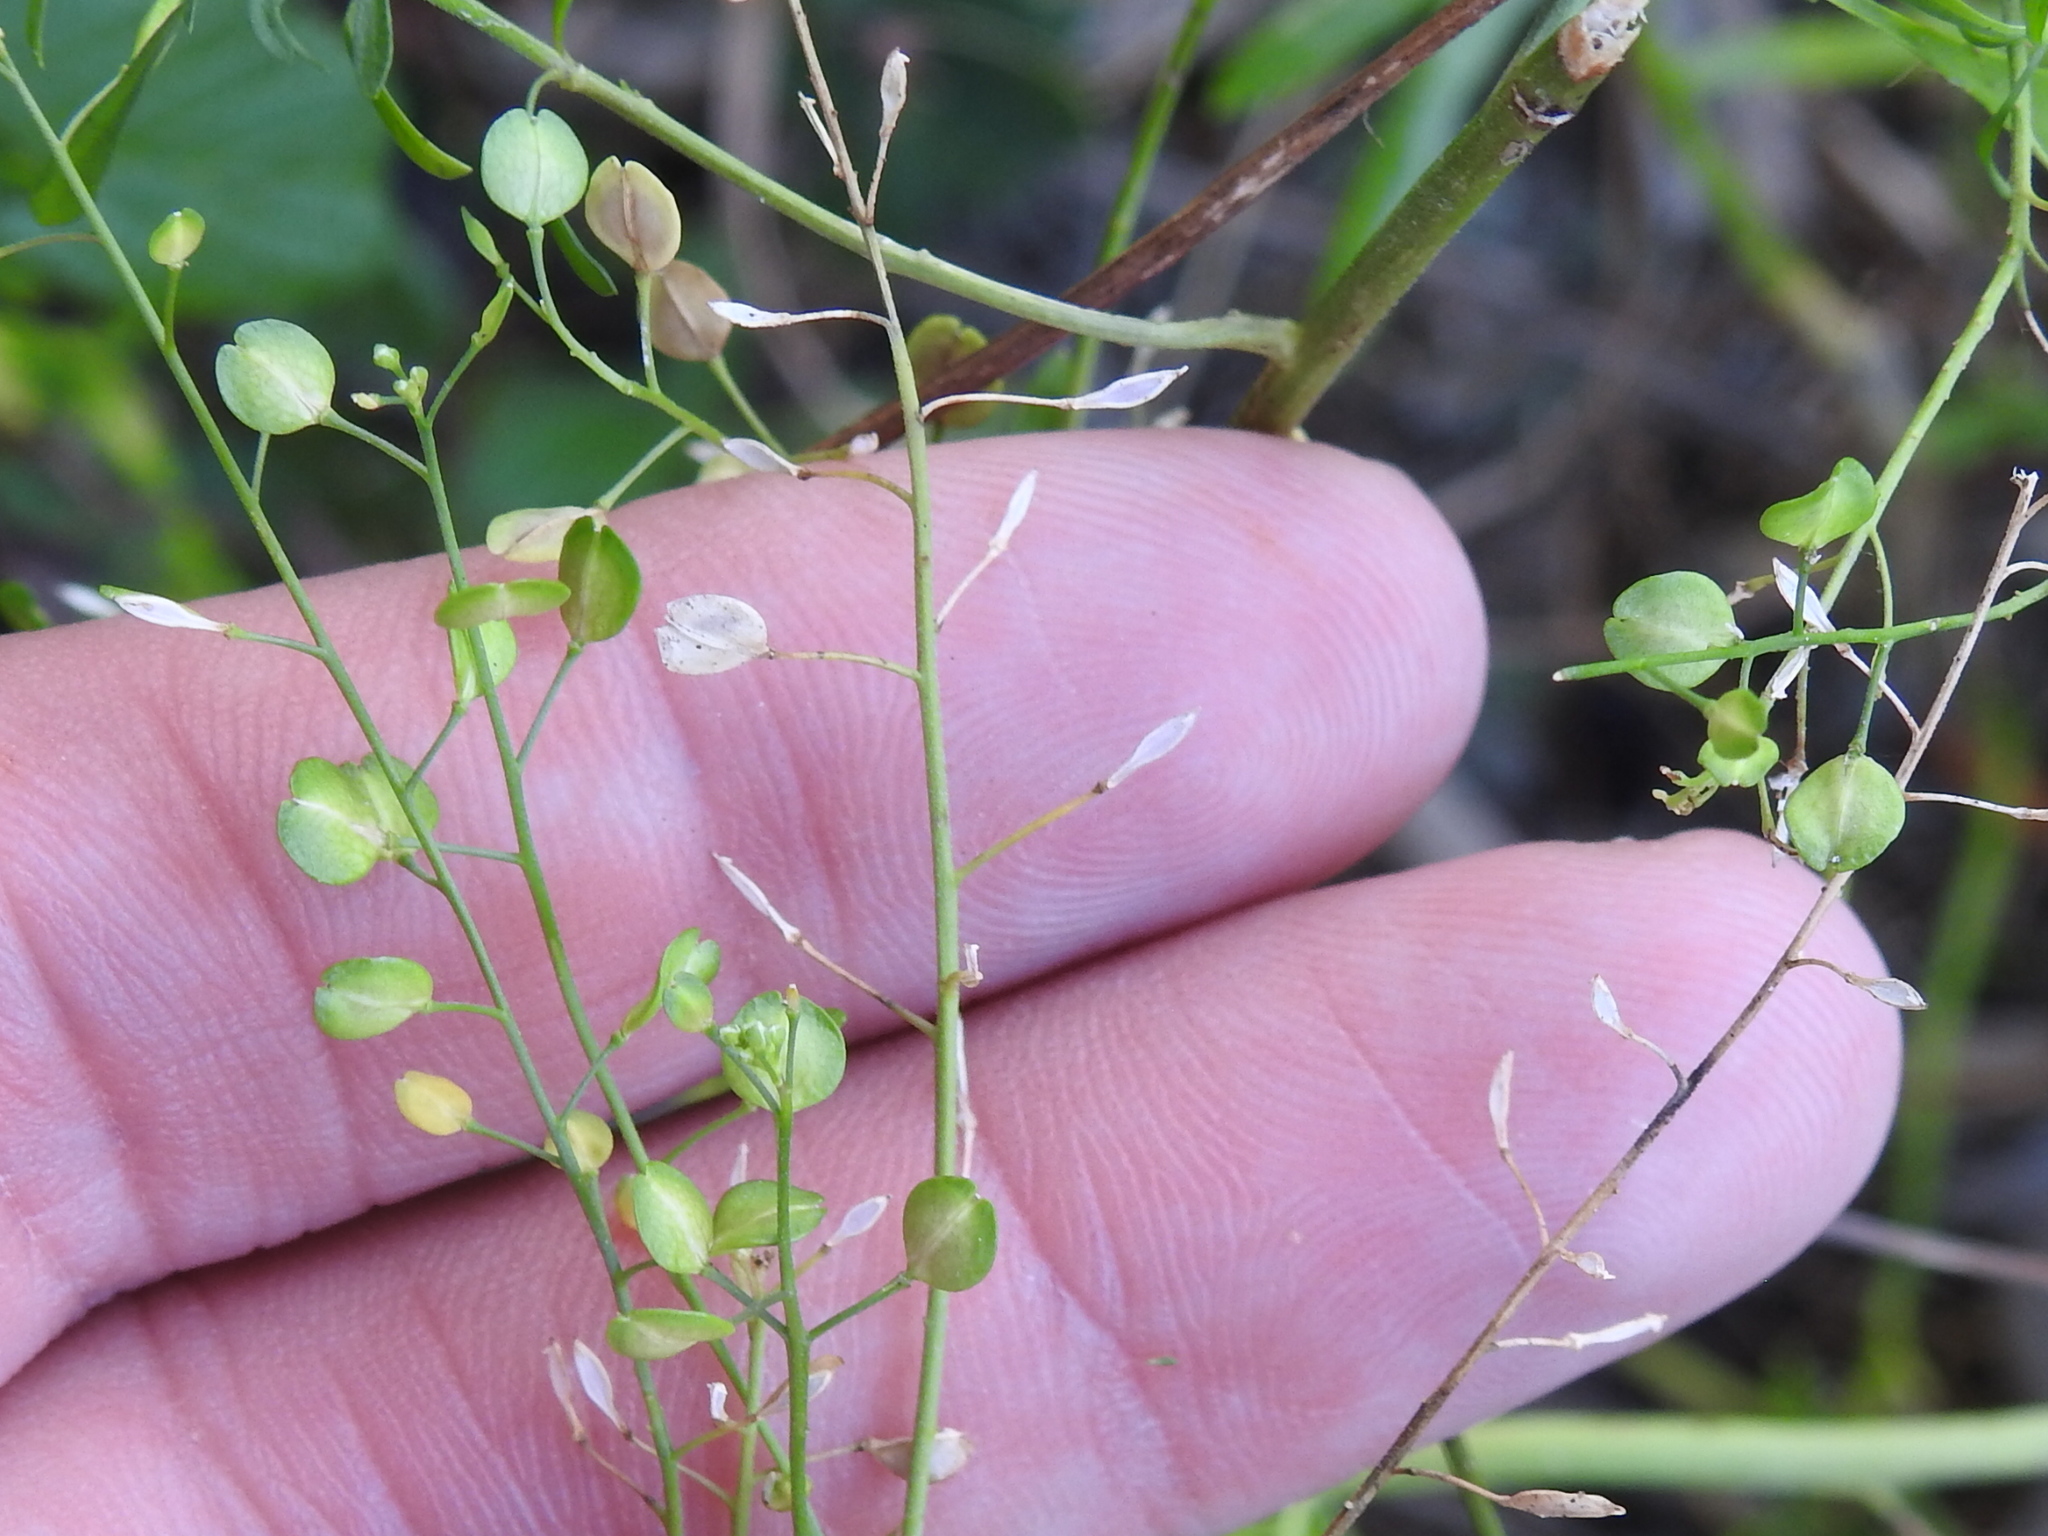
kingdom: Plantae
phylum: Tracheophyta
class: Magnoliopsida
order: Brassicales
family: Brassicaceae
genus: Lepidium
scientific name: Lepidium virginicum
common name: Least pepperwort
